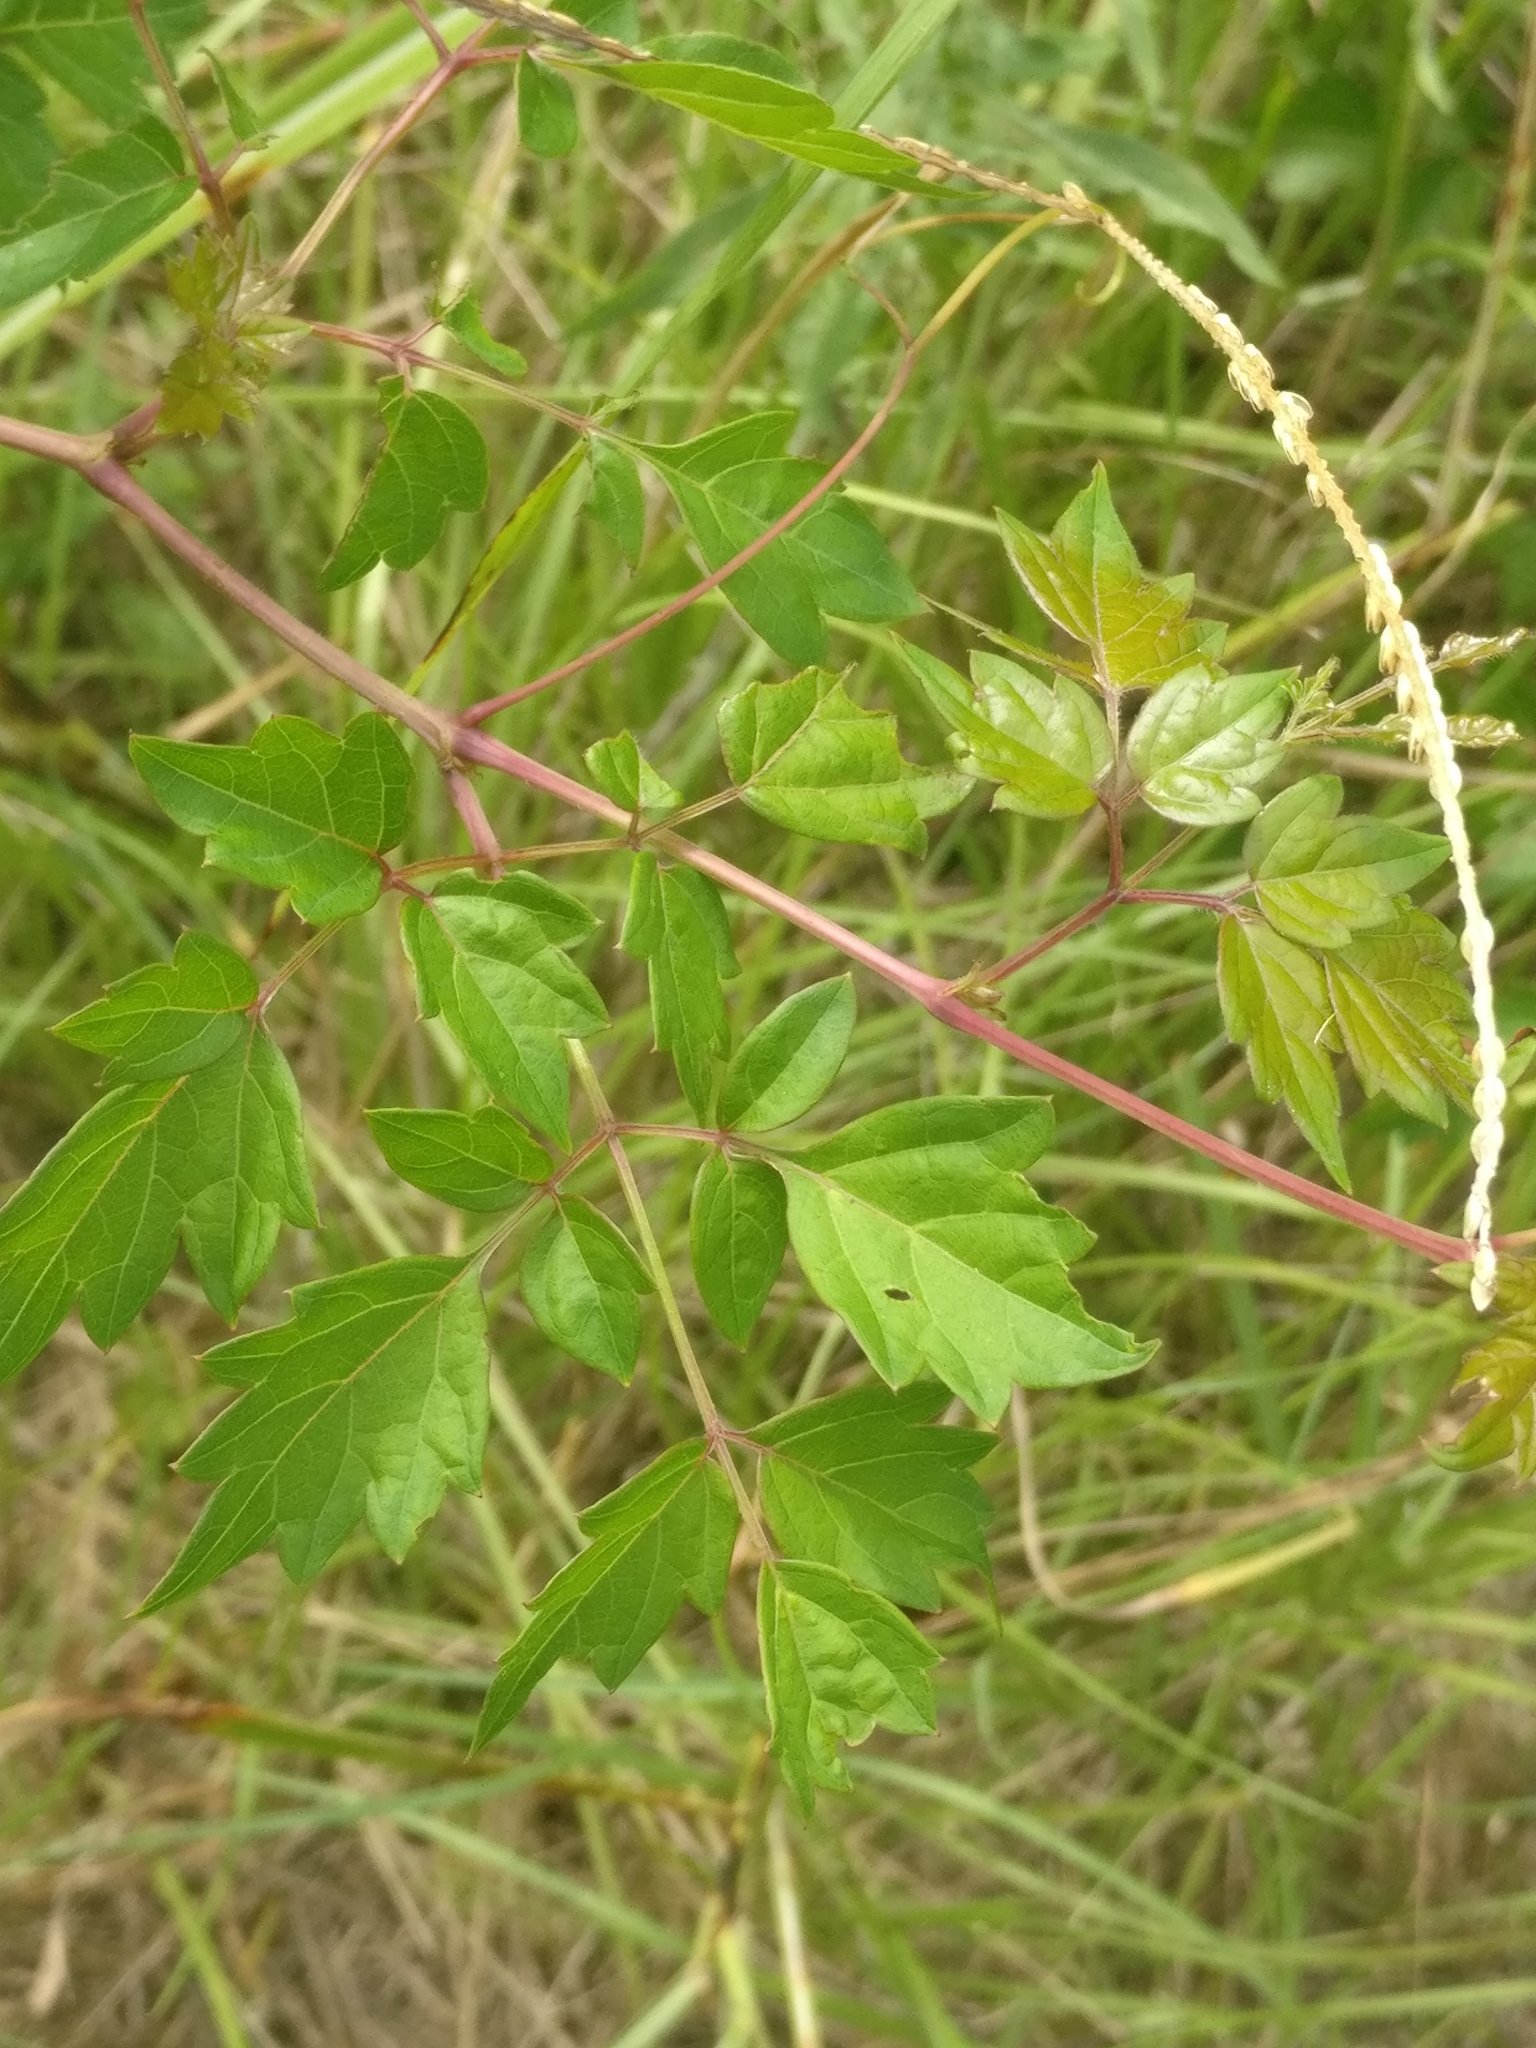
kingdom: Plantae
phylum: Tracheophyta
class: Magnoliopsida
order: Vitales
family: Vitaceae
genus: Nekemias
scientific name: Nekemias arborea
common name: Peppervine
